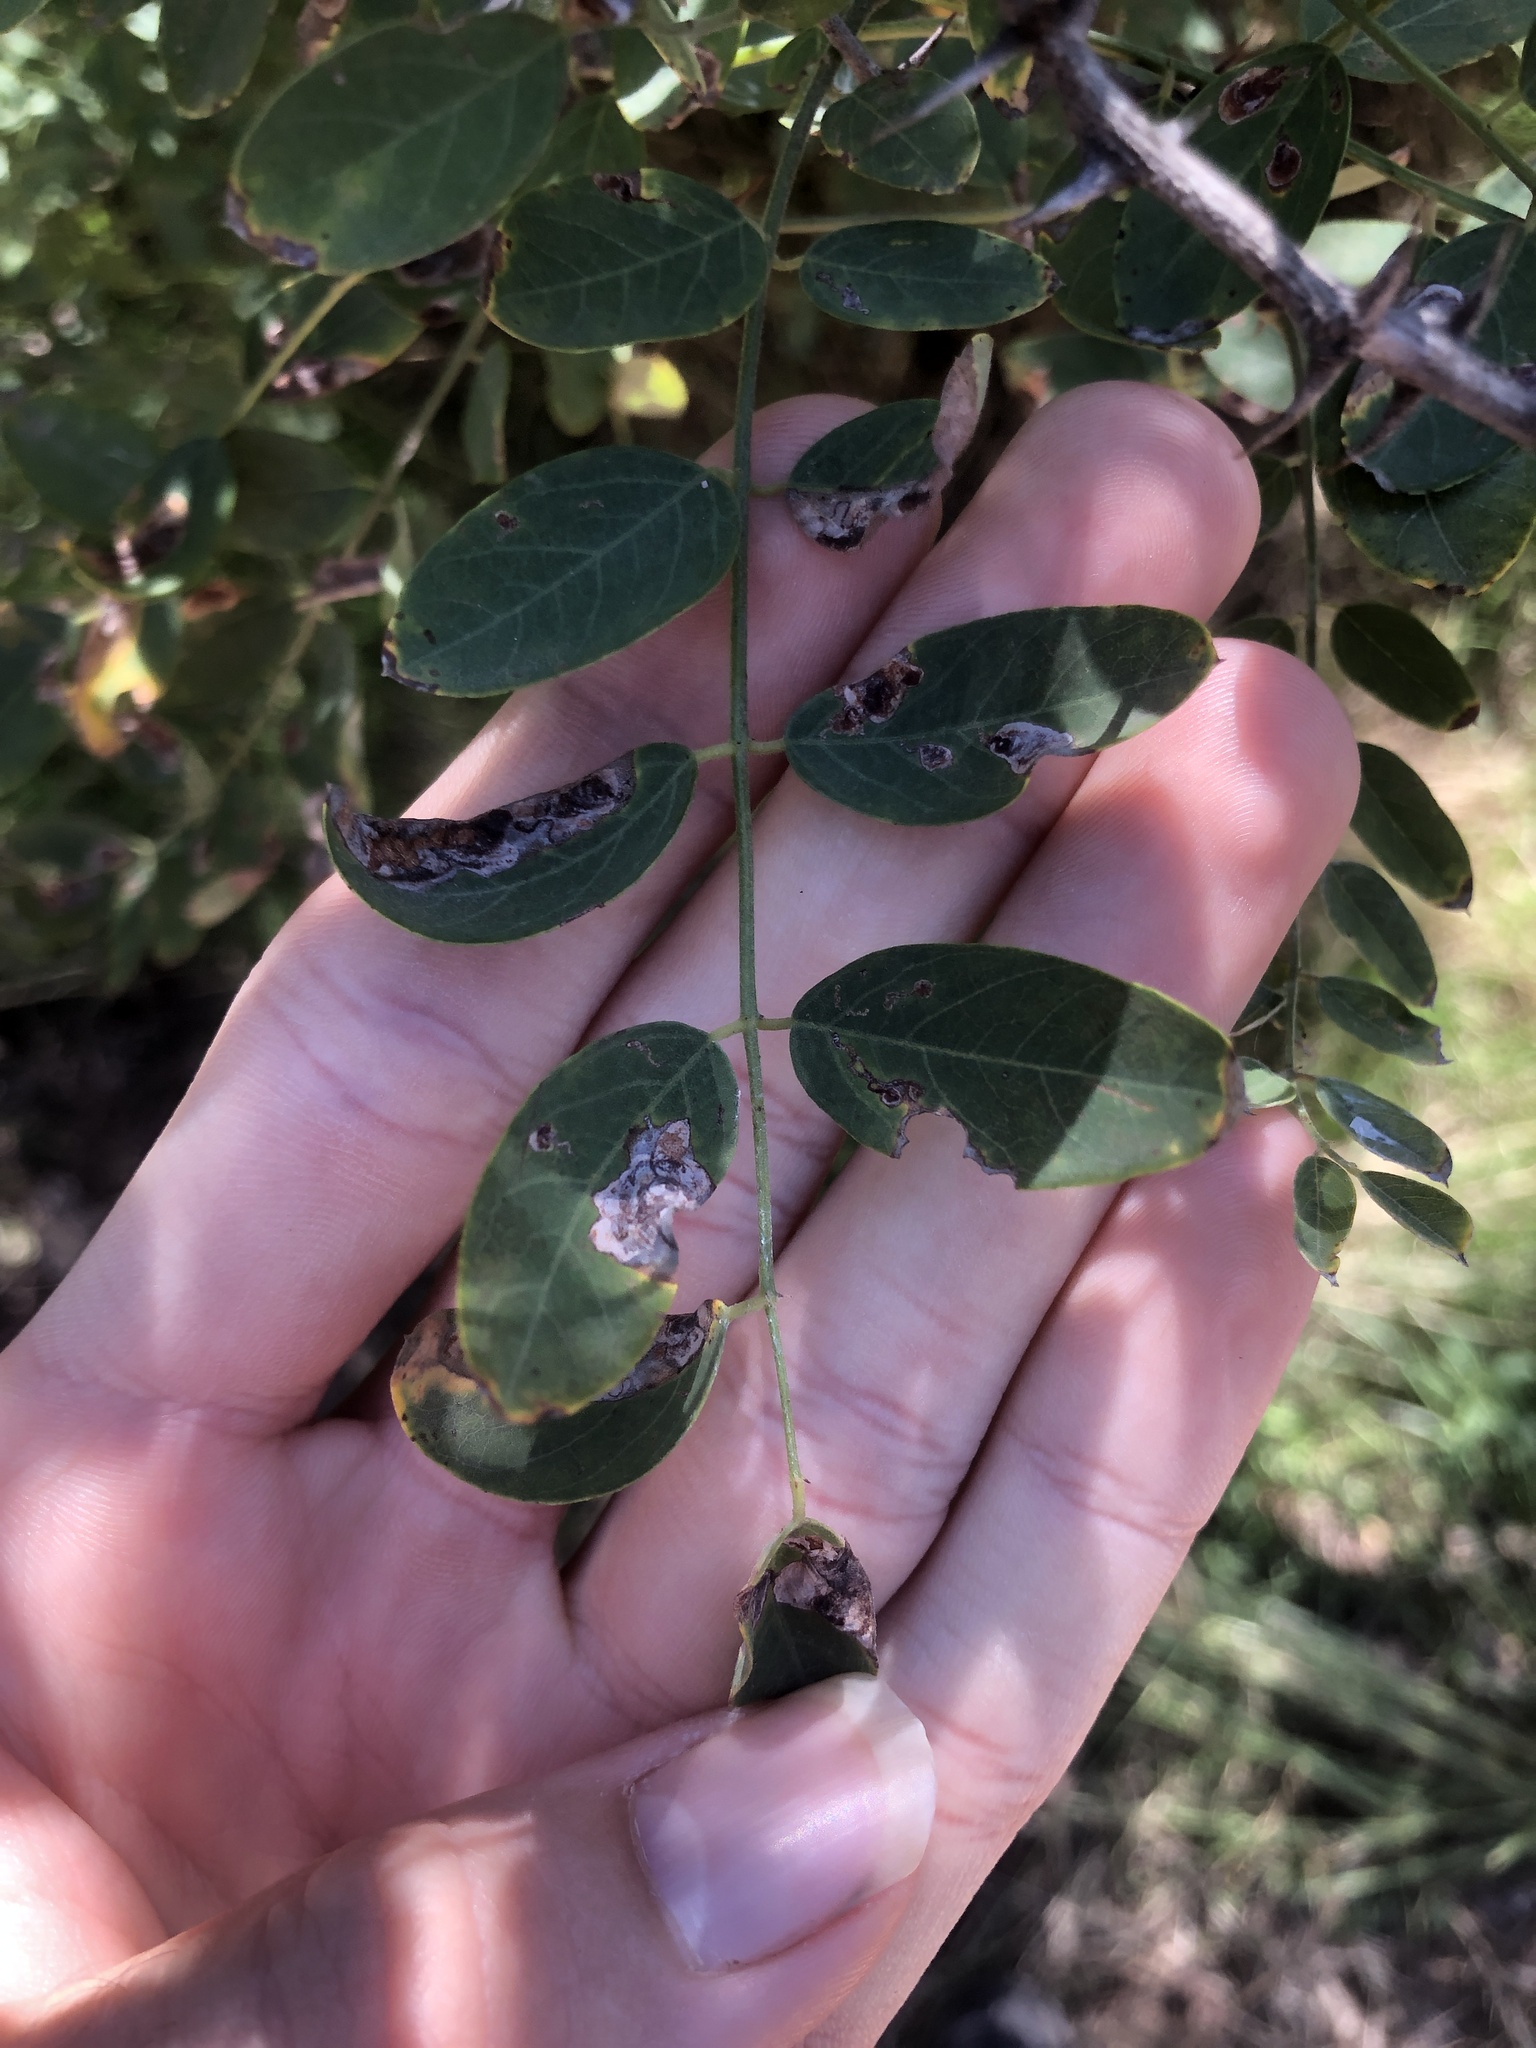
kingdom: Plantae
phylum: Tracheophyta
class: Magnoliopsida
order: Fabales
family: Fabaceae
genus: Robinia
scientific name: Robinia neomexicana
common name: New mexico locust
